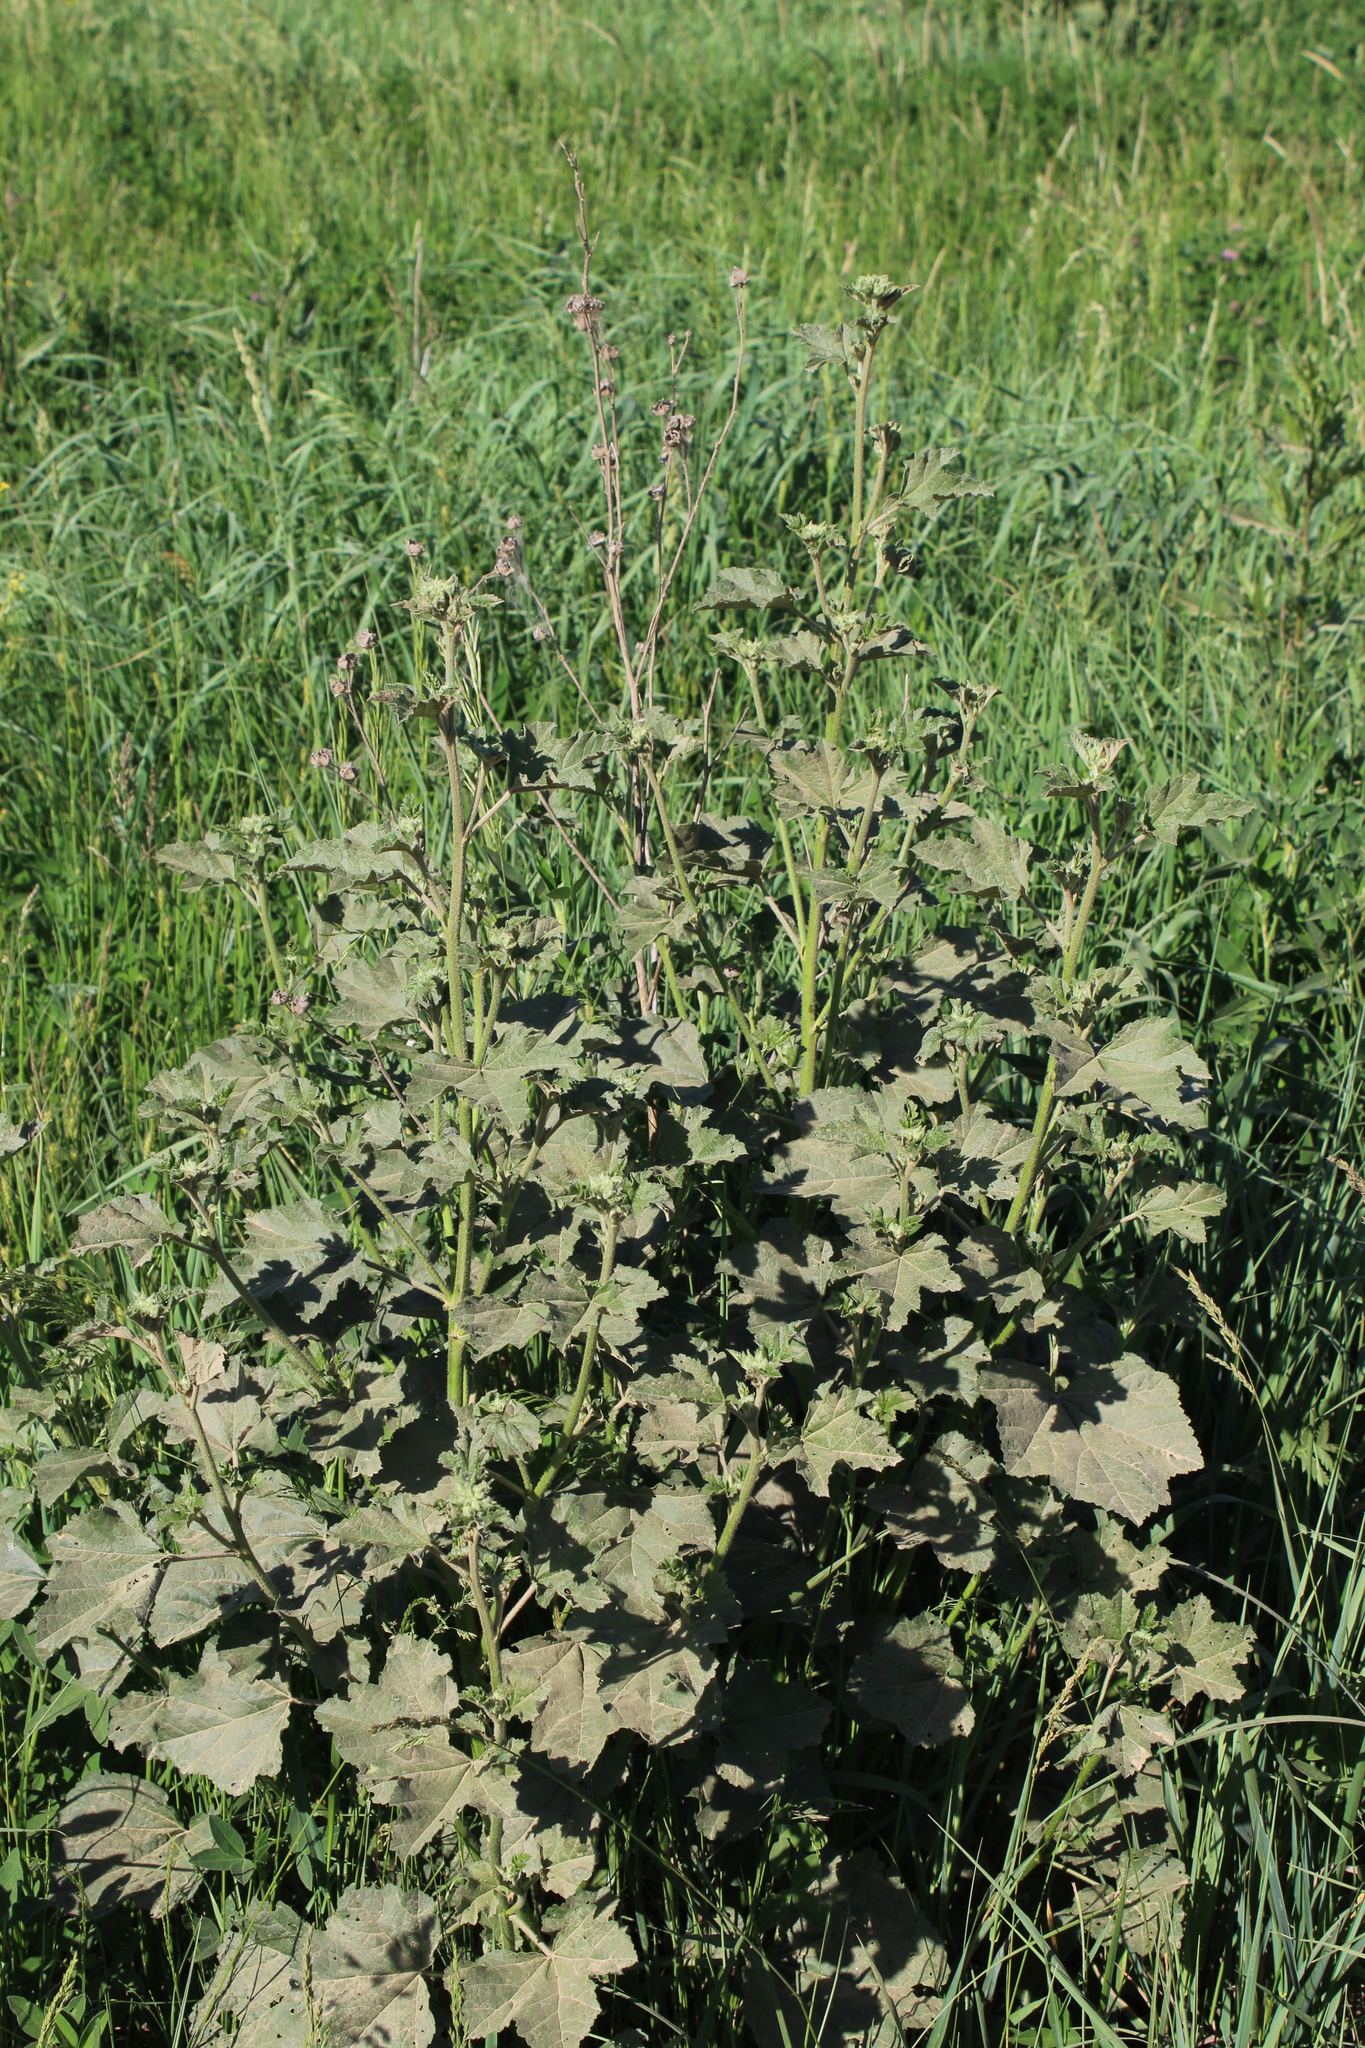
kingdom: Plantae
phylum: Tracheophyta
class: Magnoliopsida
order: Malvales
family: Malvaceae
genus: Malva
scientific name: Malva thuringiaca
